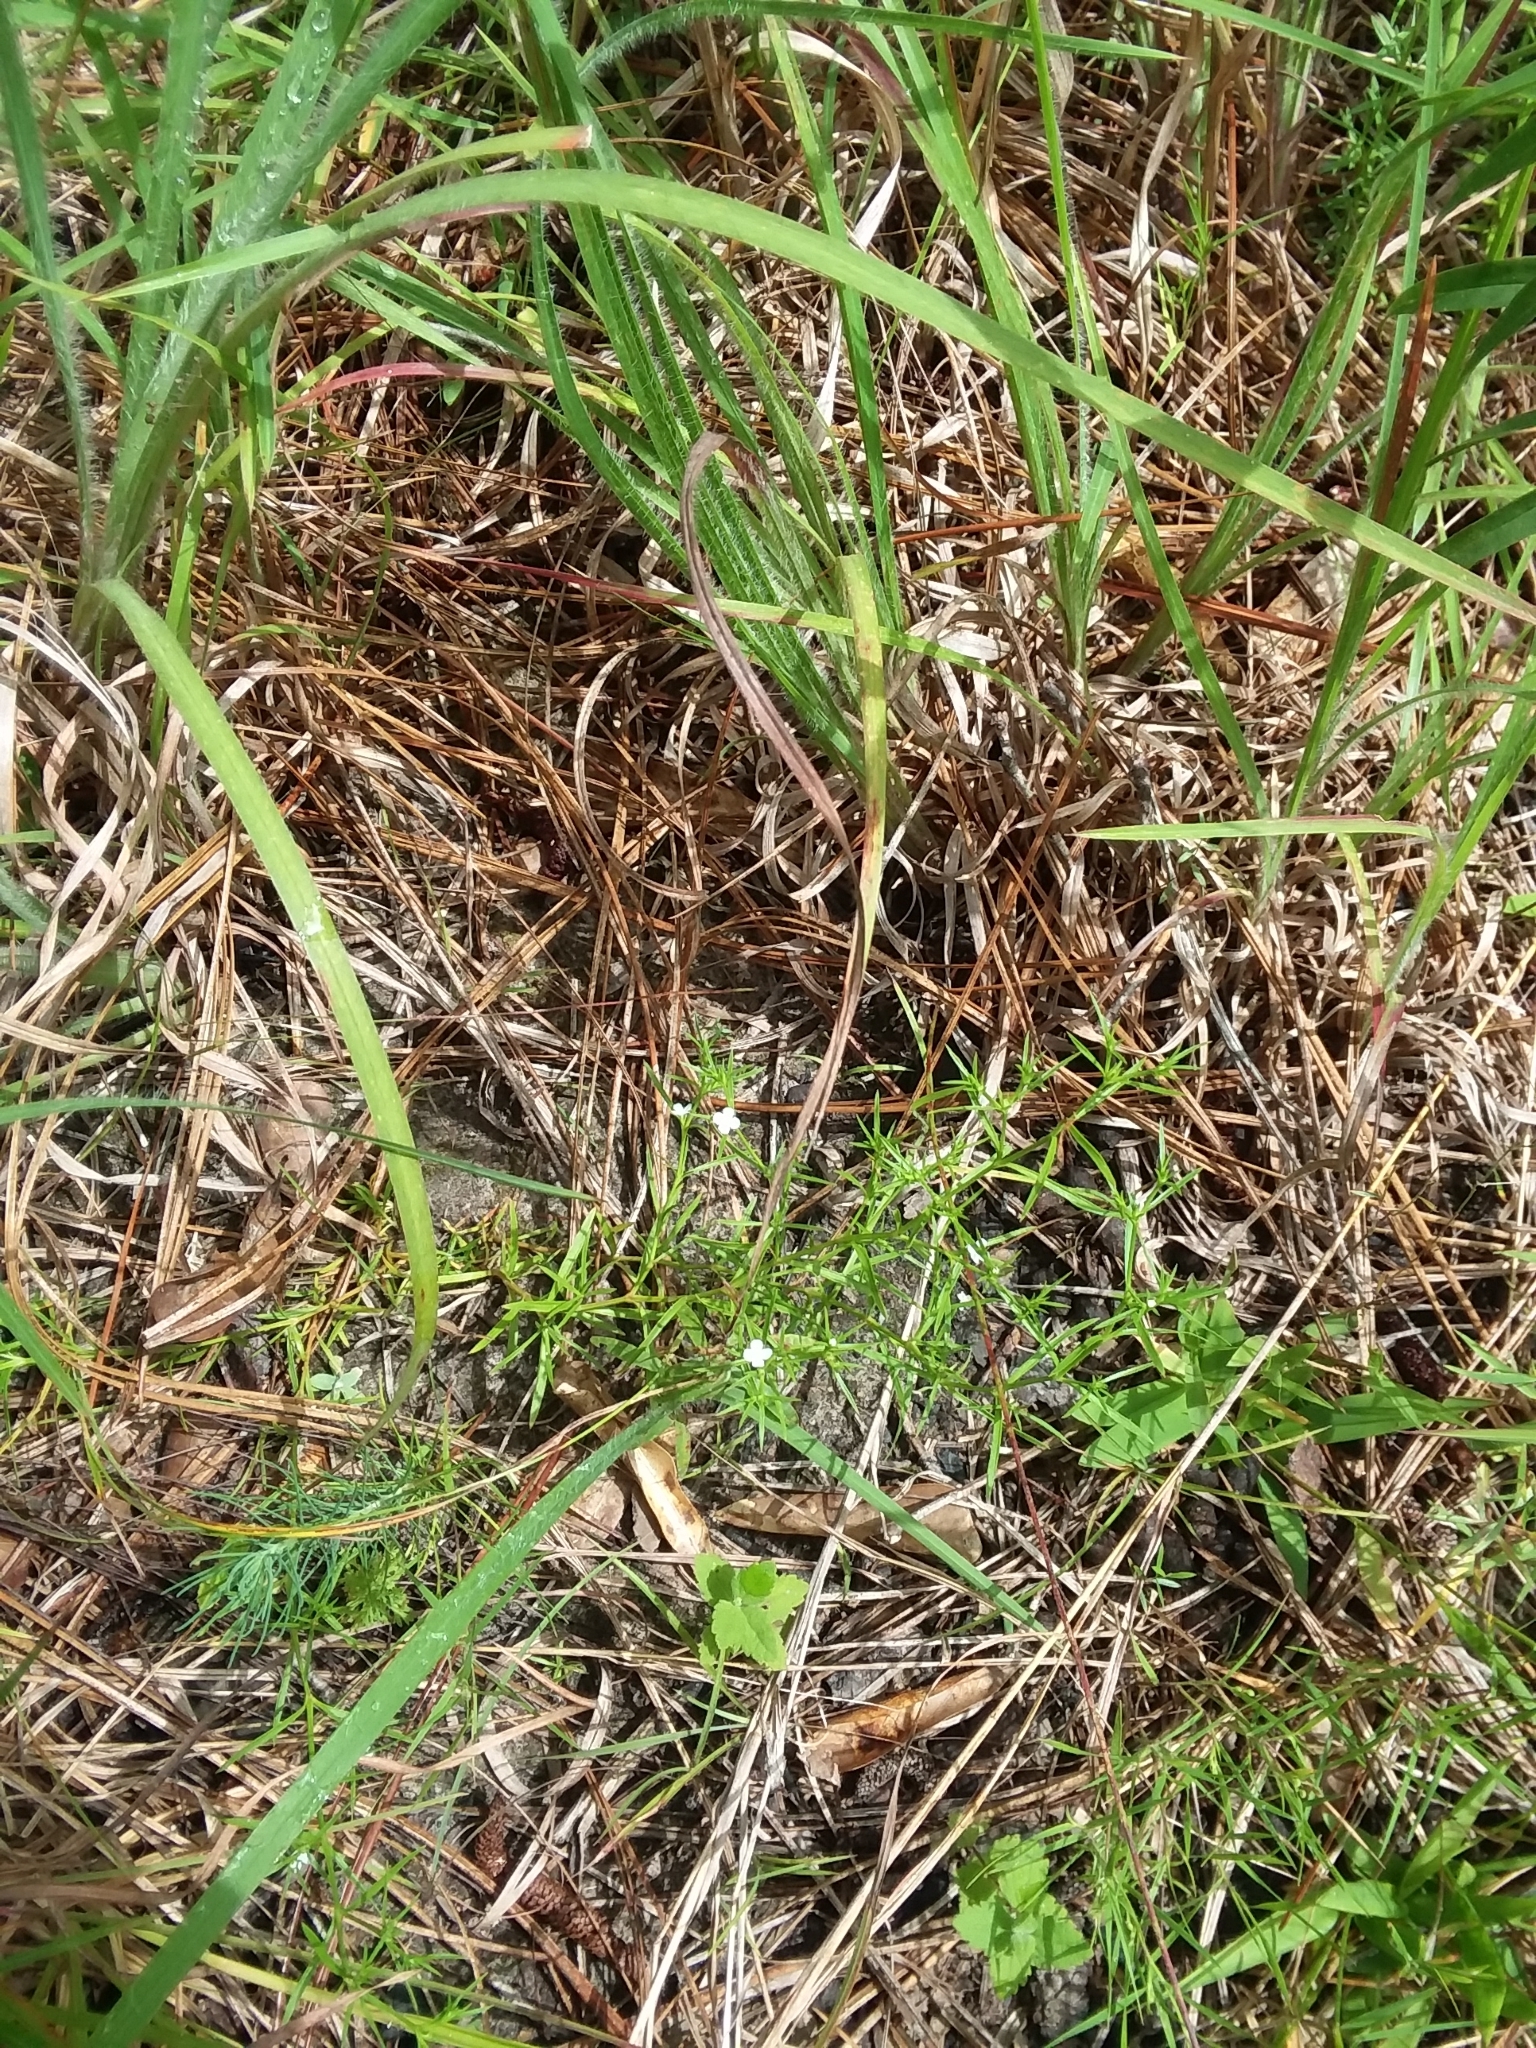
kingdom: Plantae
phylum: Tracheophyta
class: Magnoliopsida
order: Lamiales
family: Tetrachondraceae
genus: Polypremum
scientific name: Polypremum procumbens
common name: Juniper-leaf
